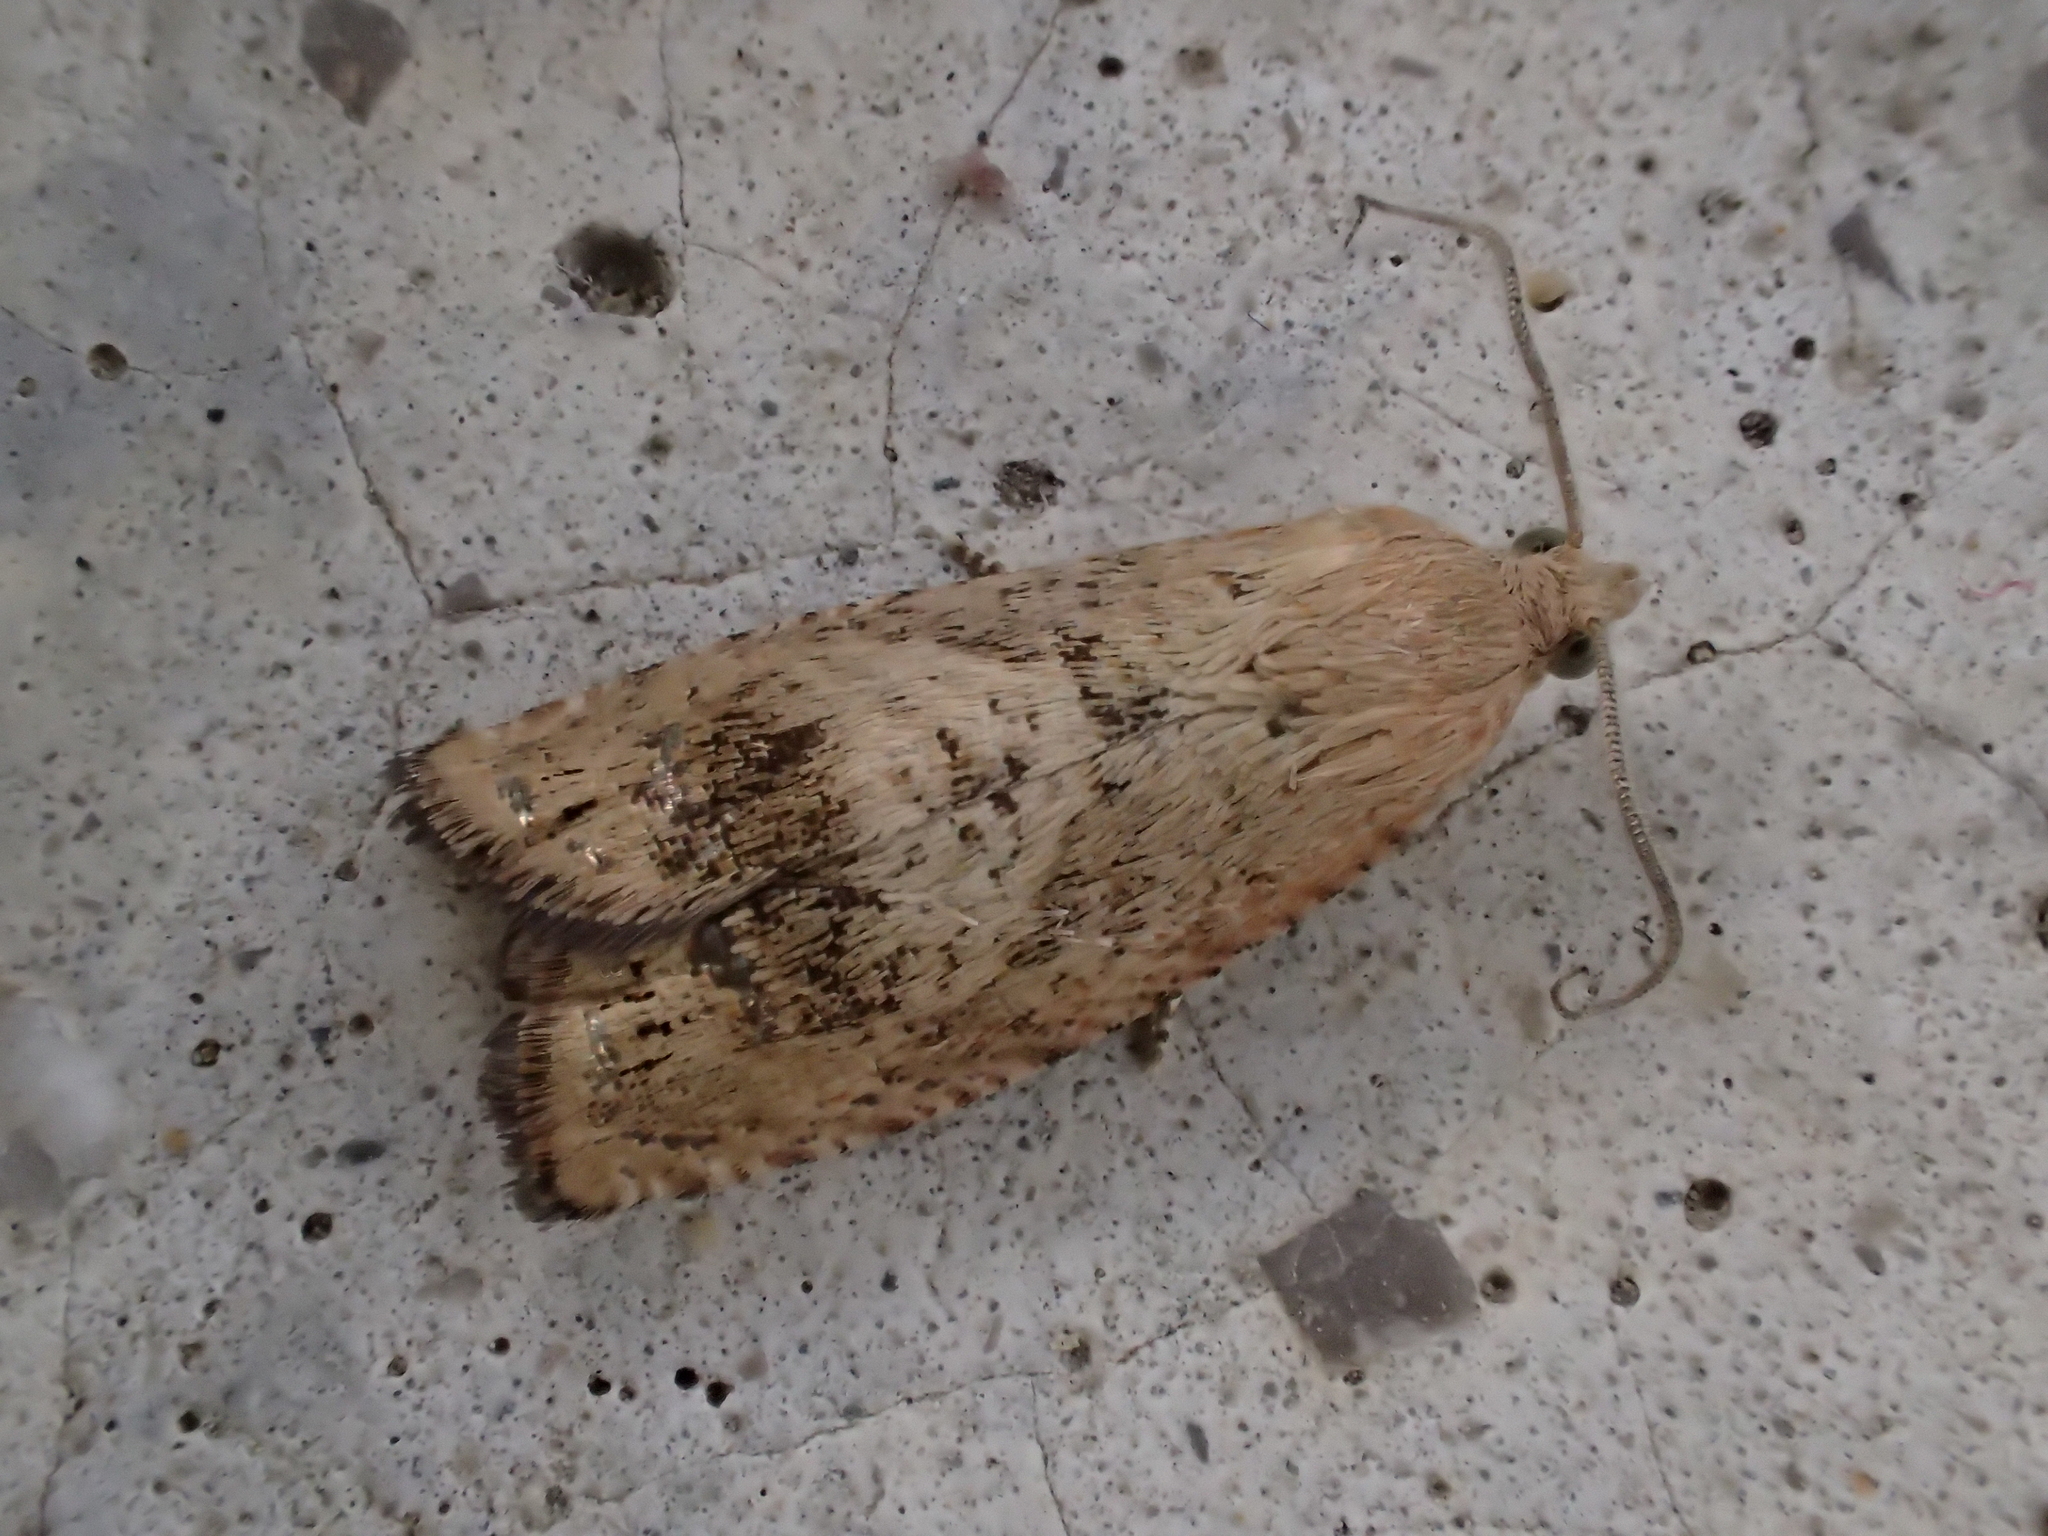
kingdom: Animalia
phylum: Arthropoda
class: Insecta
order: Lepidoptera
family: Tortricidae
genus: Cydia
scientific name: Cydia amplana
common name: Vagrant piercer
